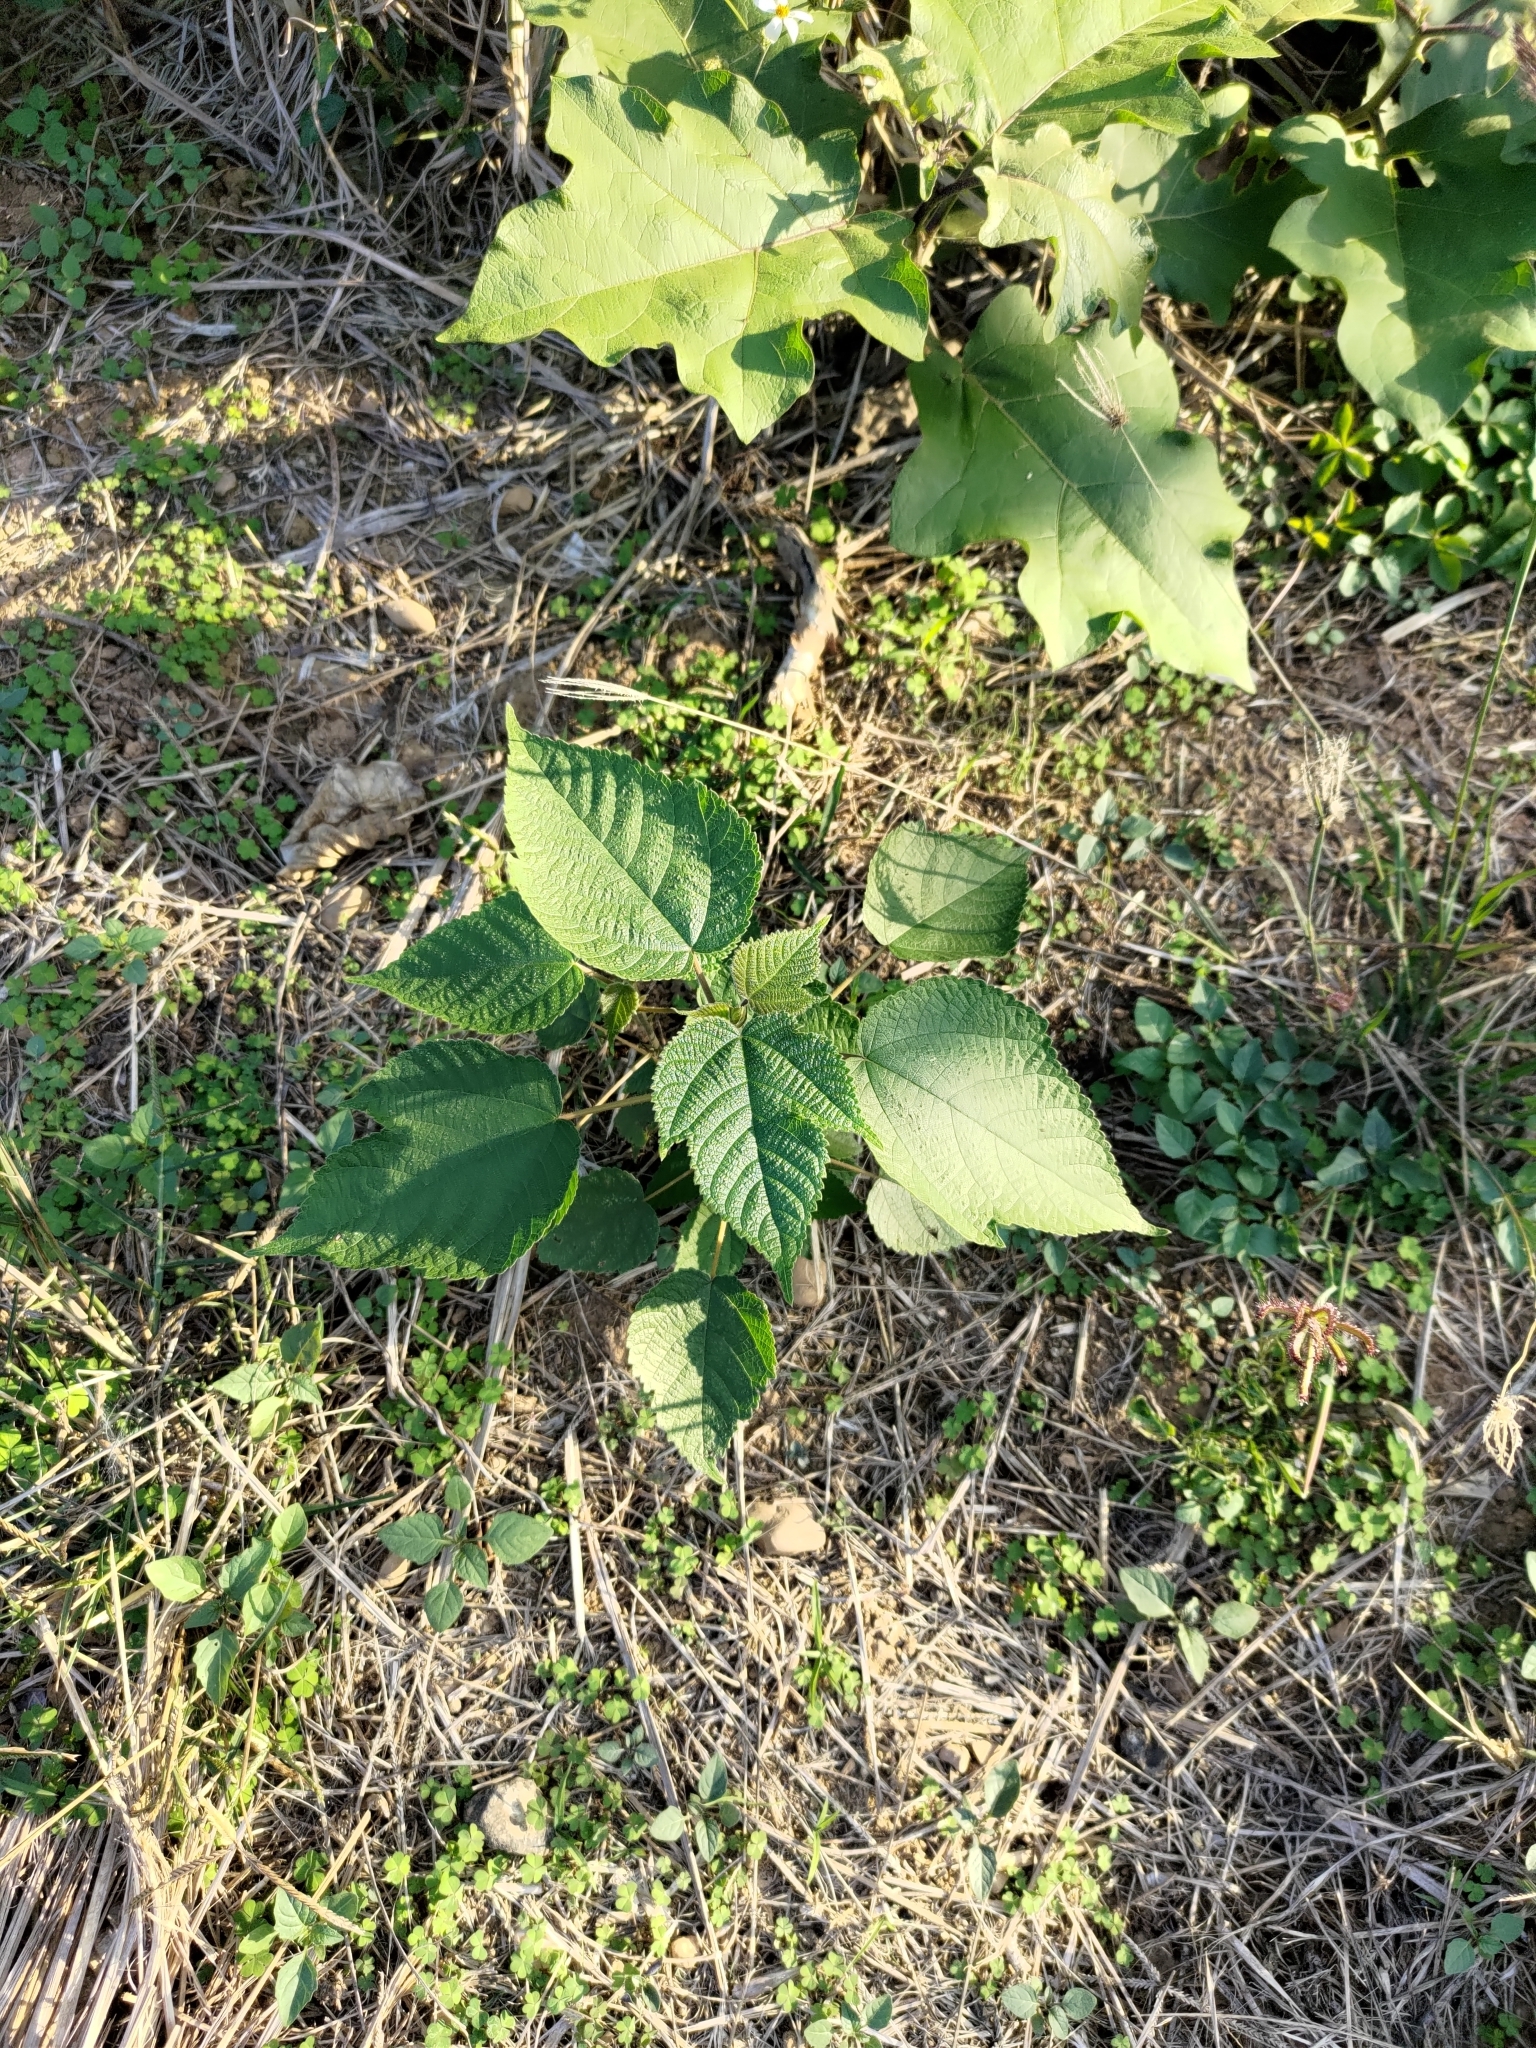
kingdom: Plantae
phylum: Tracheophyta
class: Magnoliopsida
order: Rosales
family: Moraceae
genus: Broussonetia
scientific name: Broussonetia papyrifera
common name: Paper mulberry
